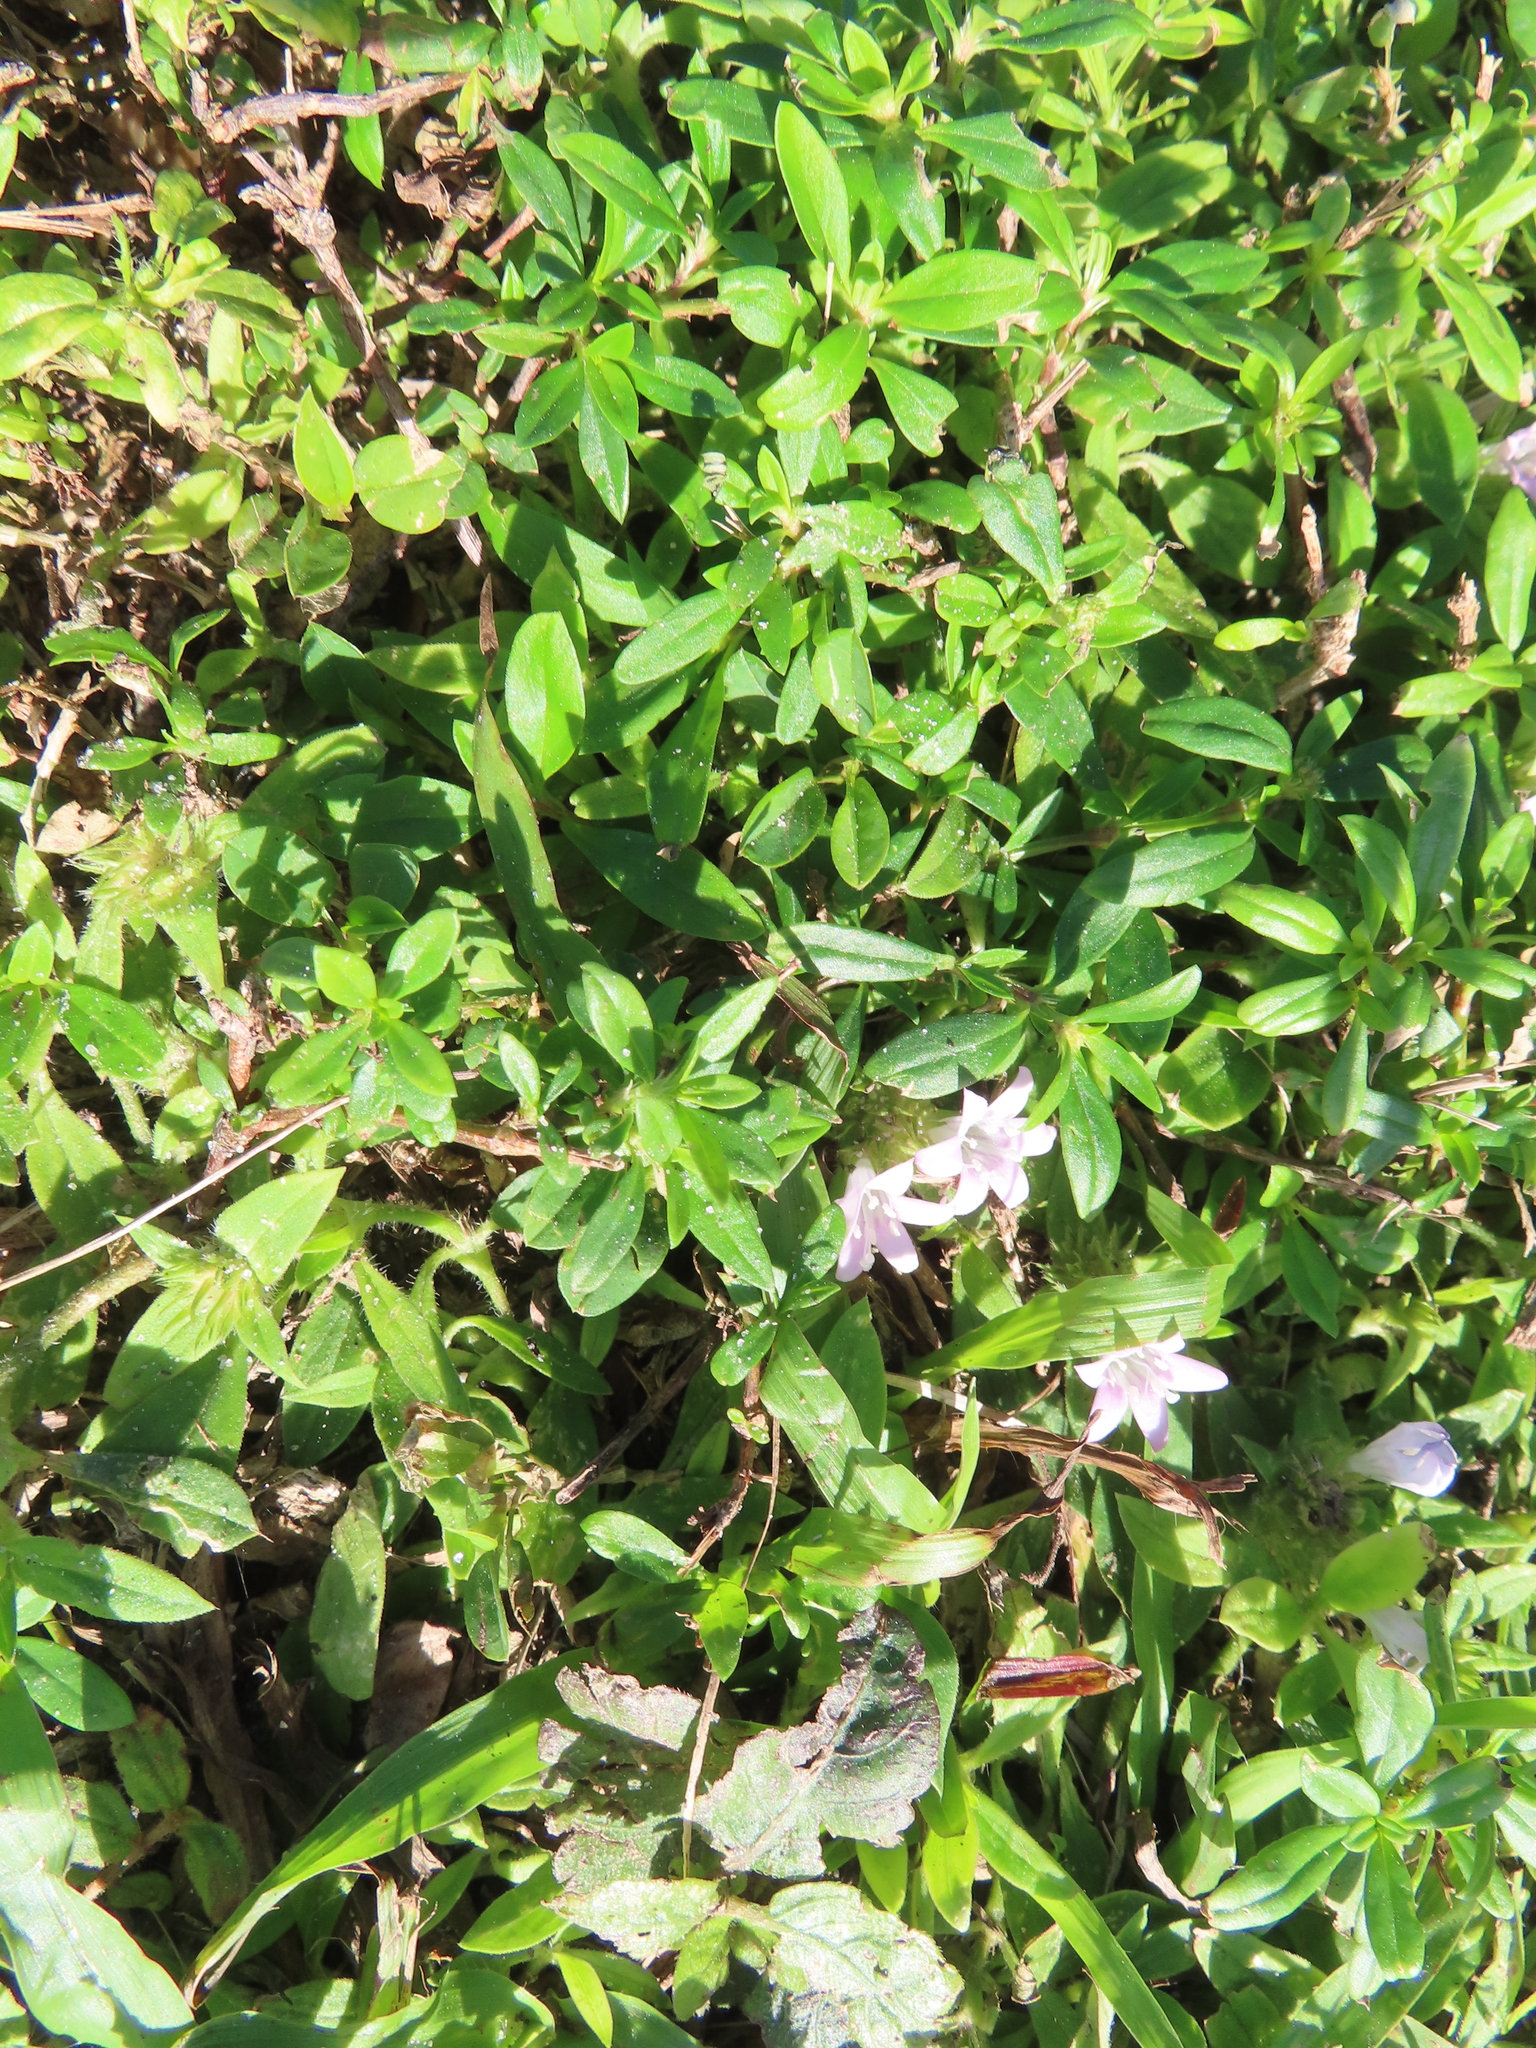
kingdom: Plantae
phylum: Tracheophyta
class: Magnoliopsida
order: Gentianales
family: Rubiaceae
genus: Richardia
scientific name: Richardia grandiflora
